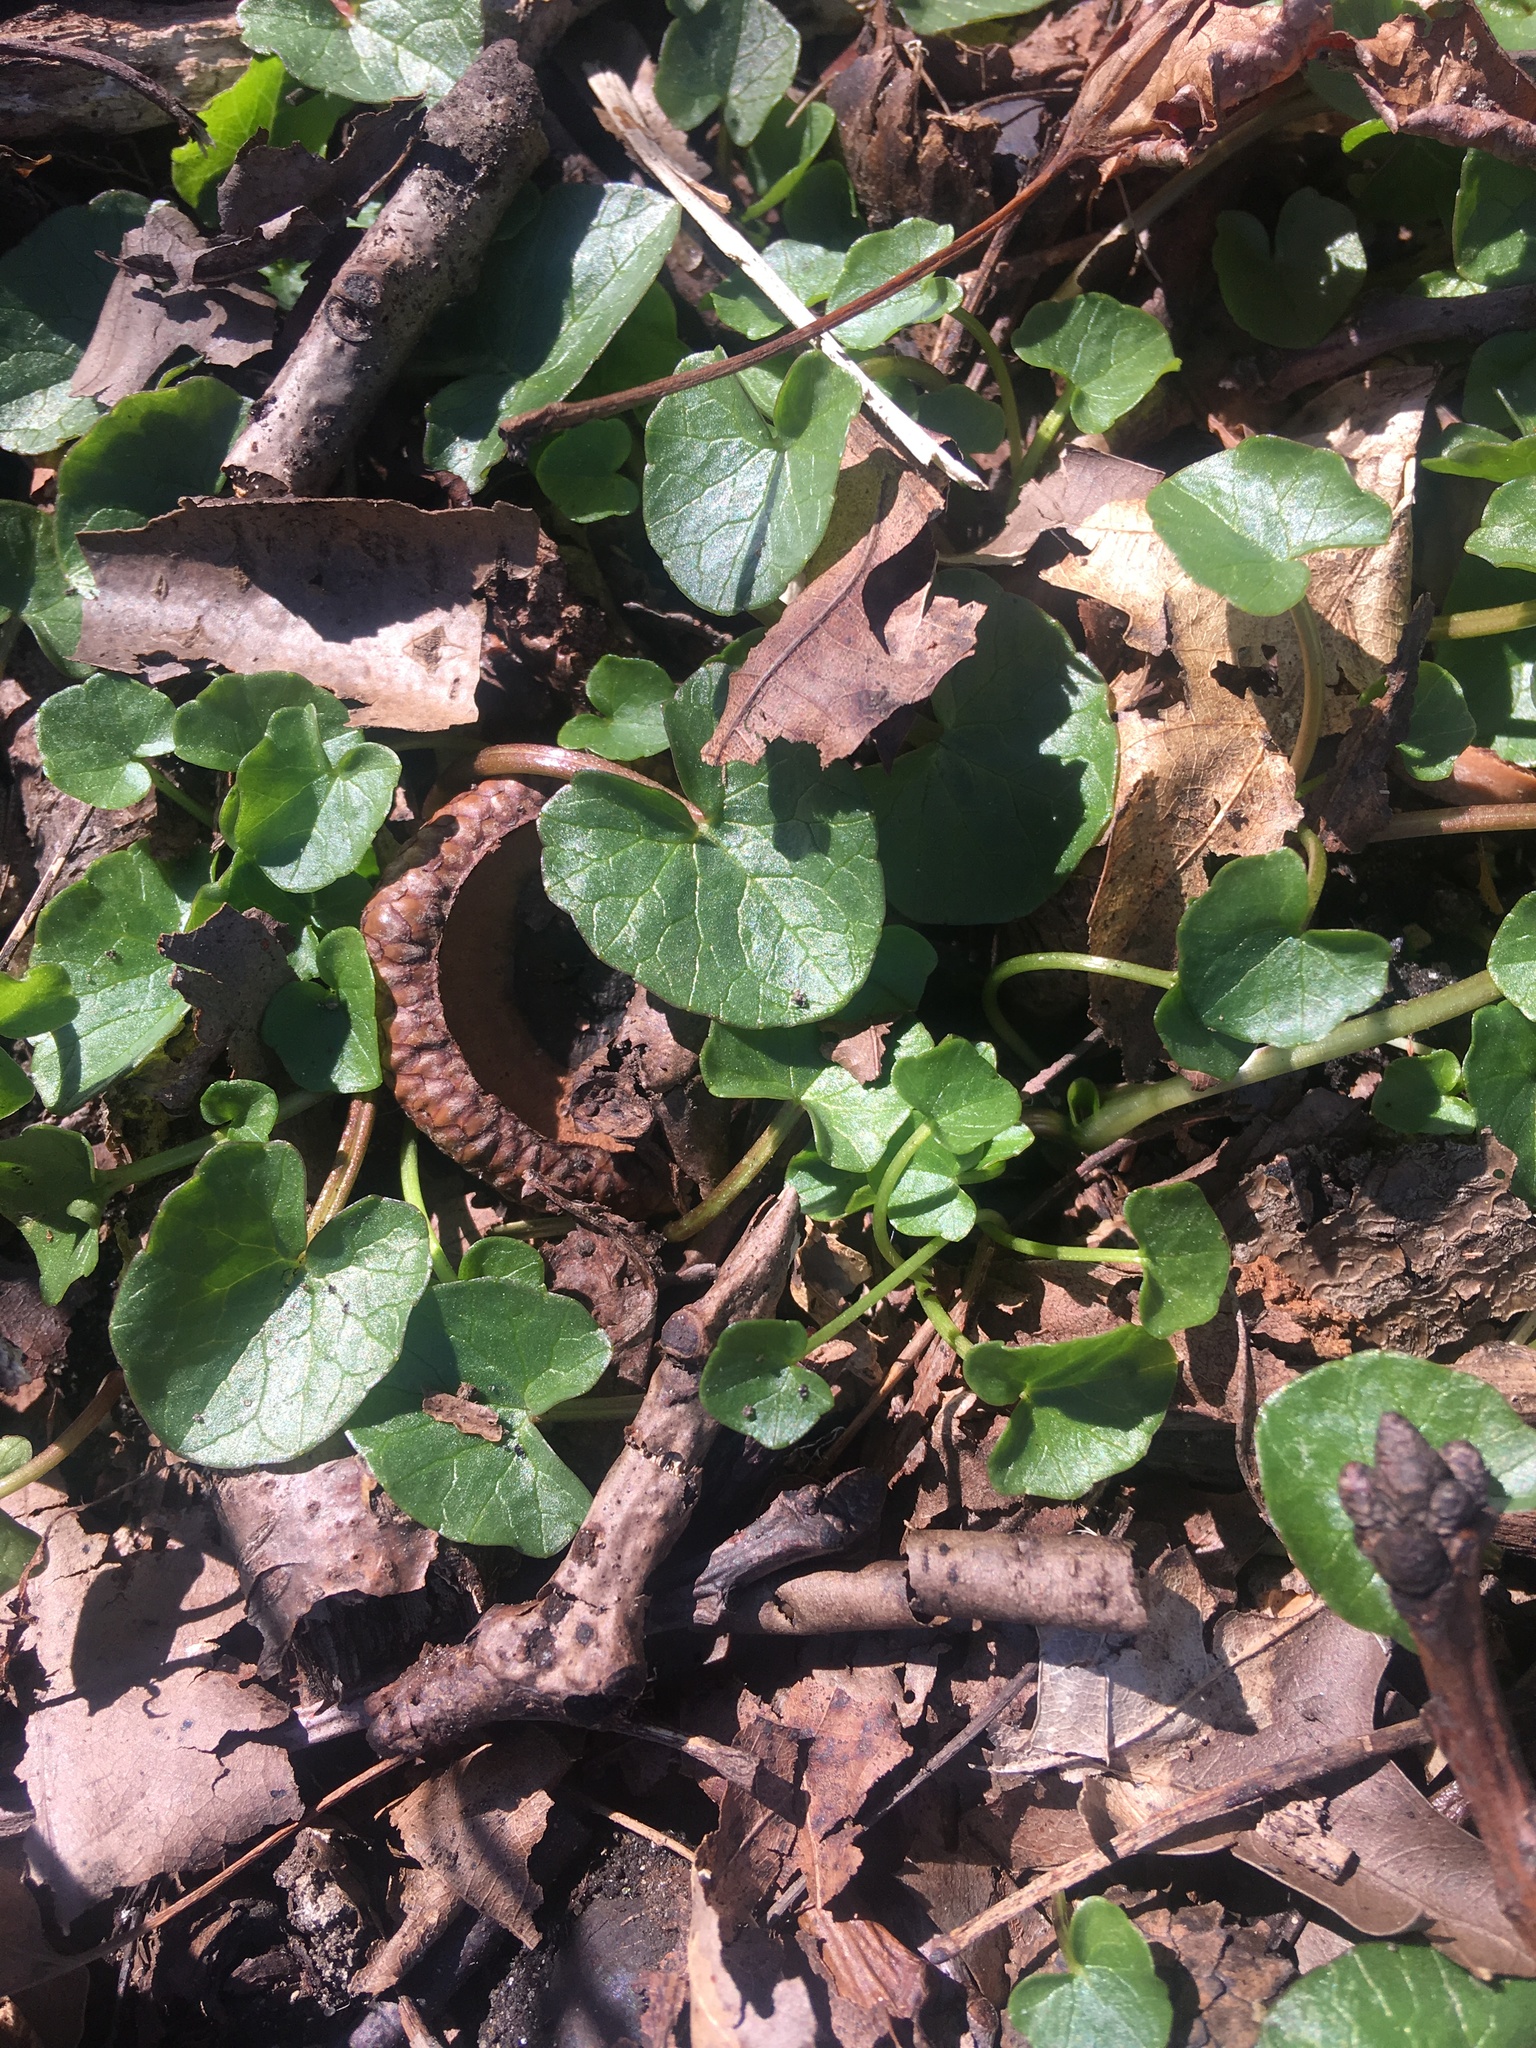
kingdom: Plantae
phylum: Tracheophyta
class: Magnoliopsida
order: Ranunculales
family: Ranunculaceae
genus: Ficaria
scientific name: Ficaria verna
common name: Lesser celandine
